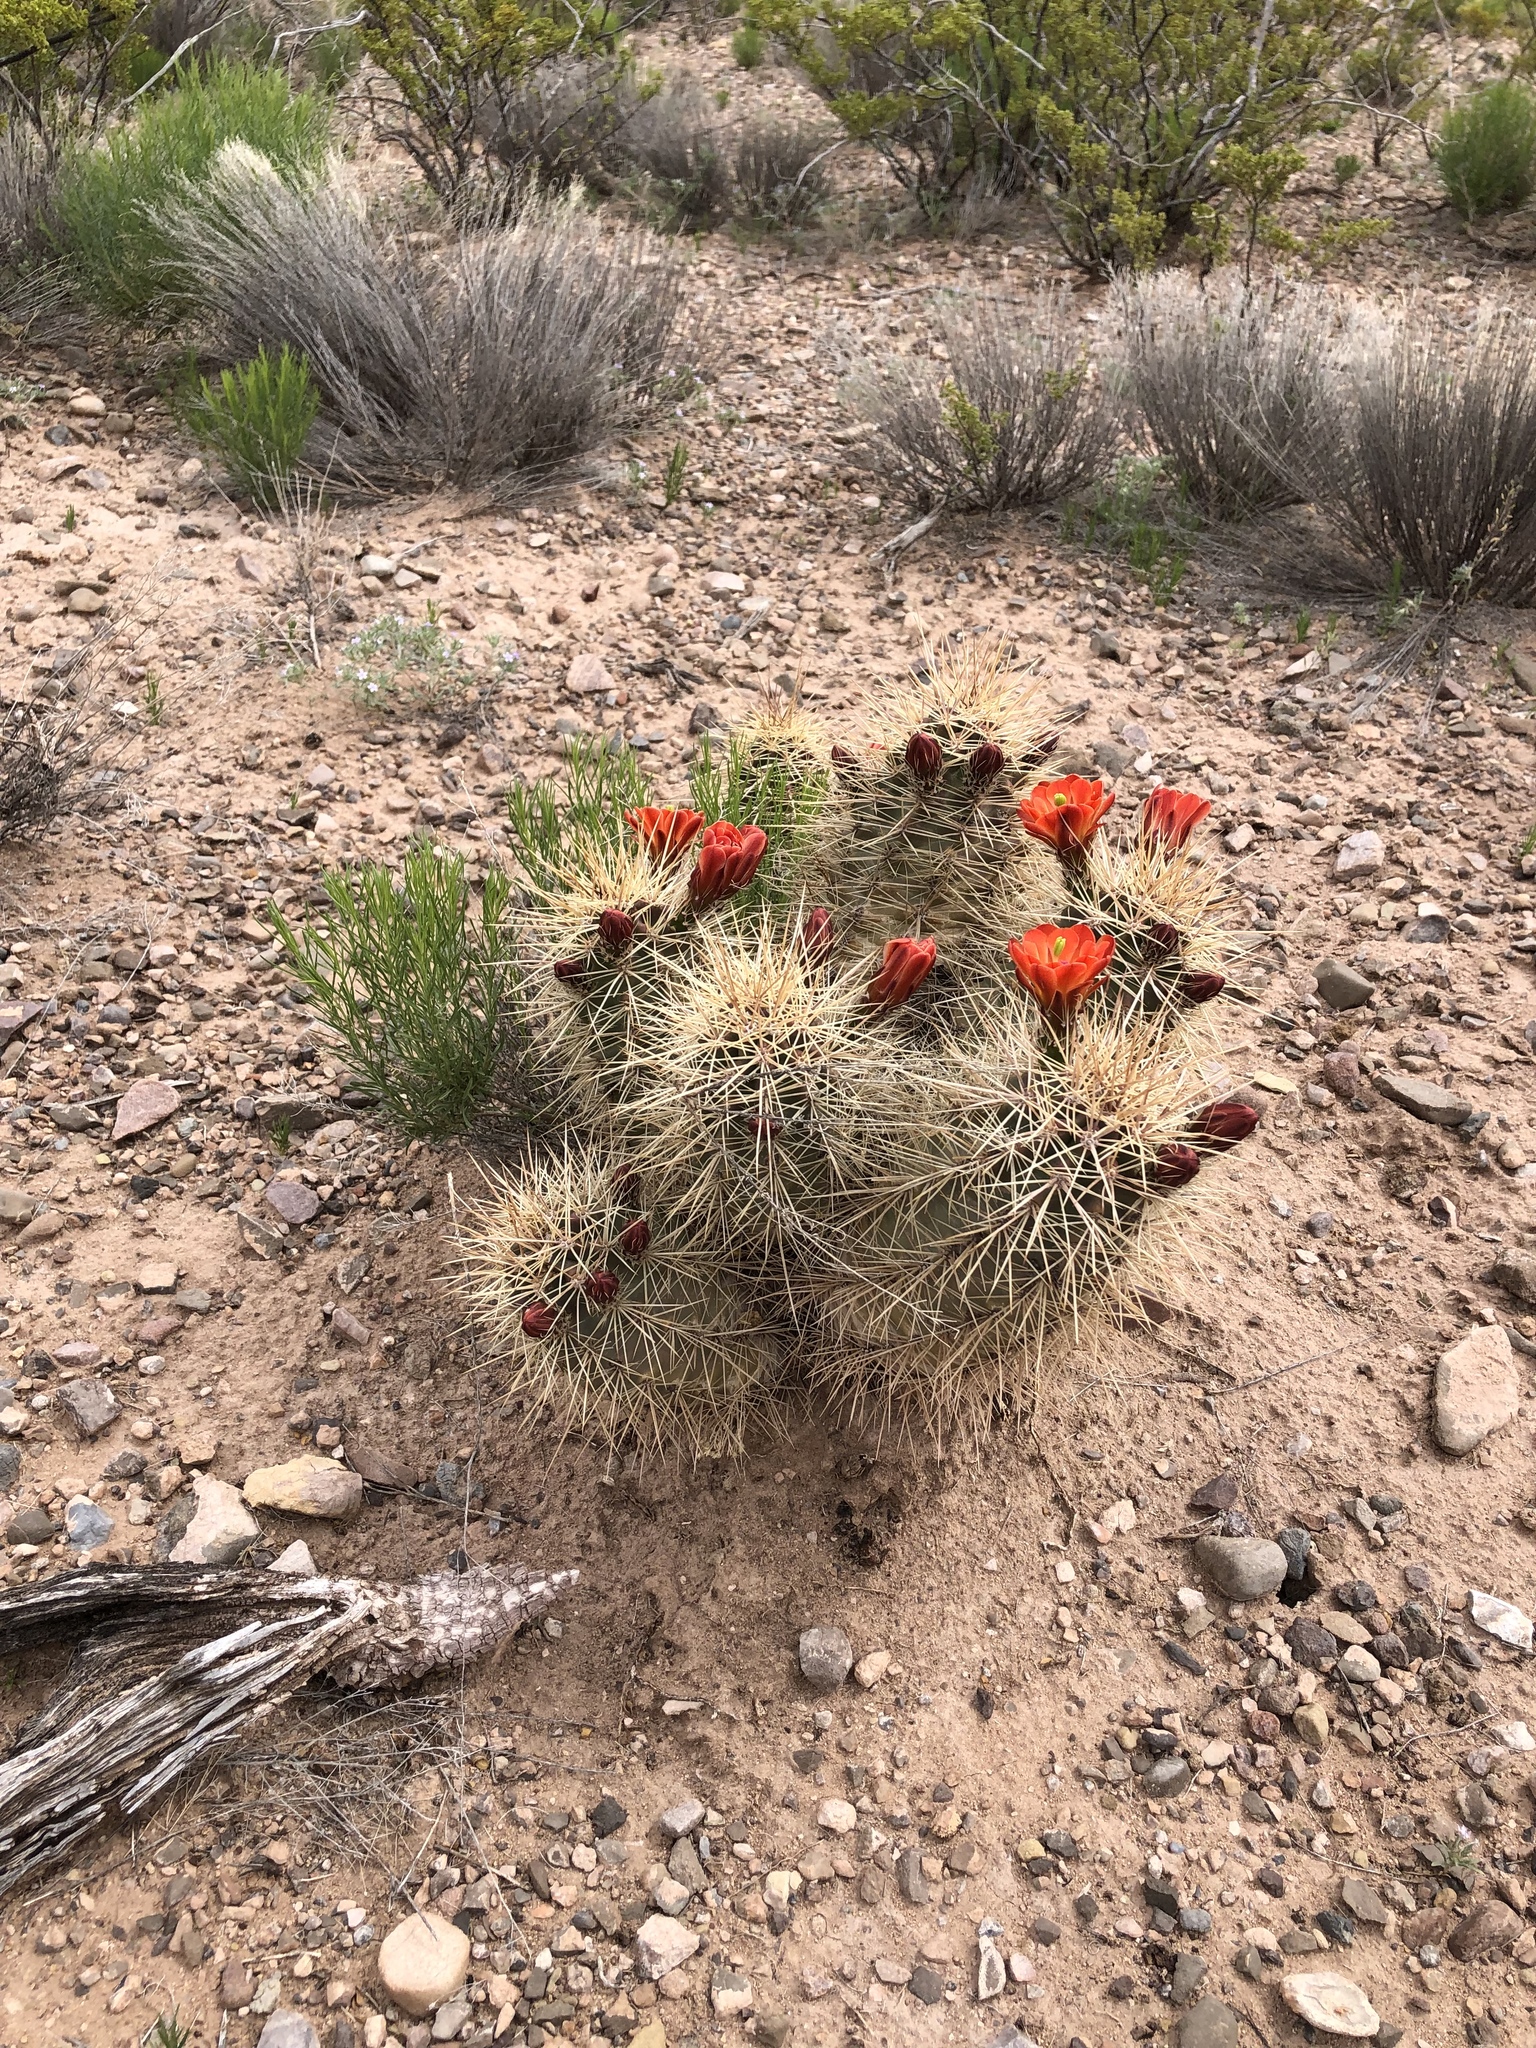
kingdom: Plantae
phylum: Tracheophyta
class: Magnoliopsida
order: Caryophyllales
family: Cactaceae
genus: Echinocereus
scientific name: Echinocereus coccineus
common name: Scarlet hedgehog cactus
